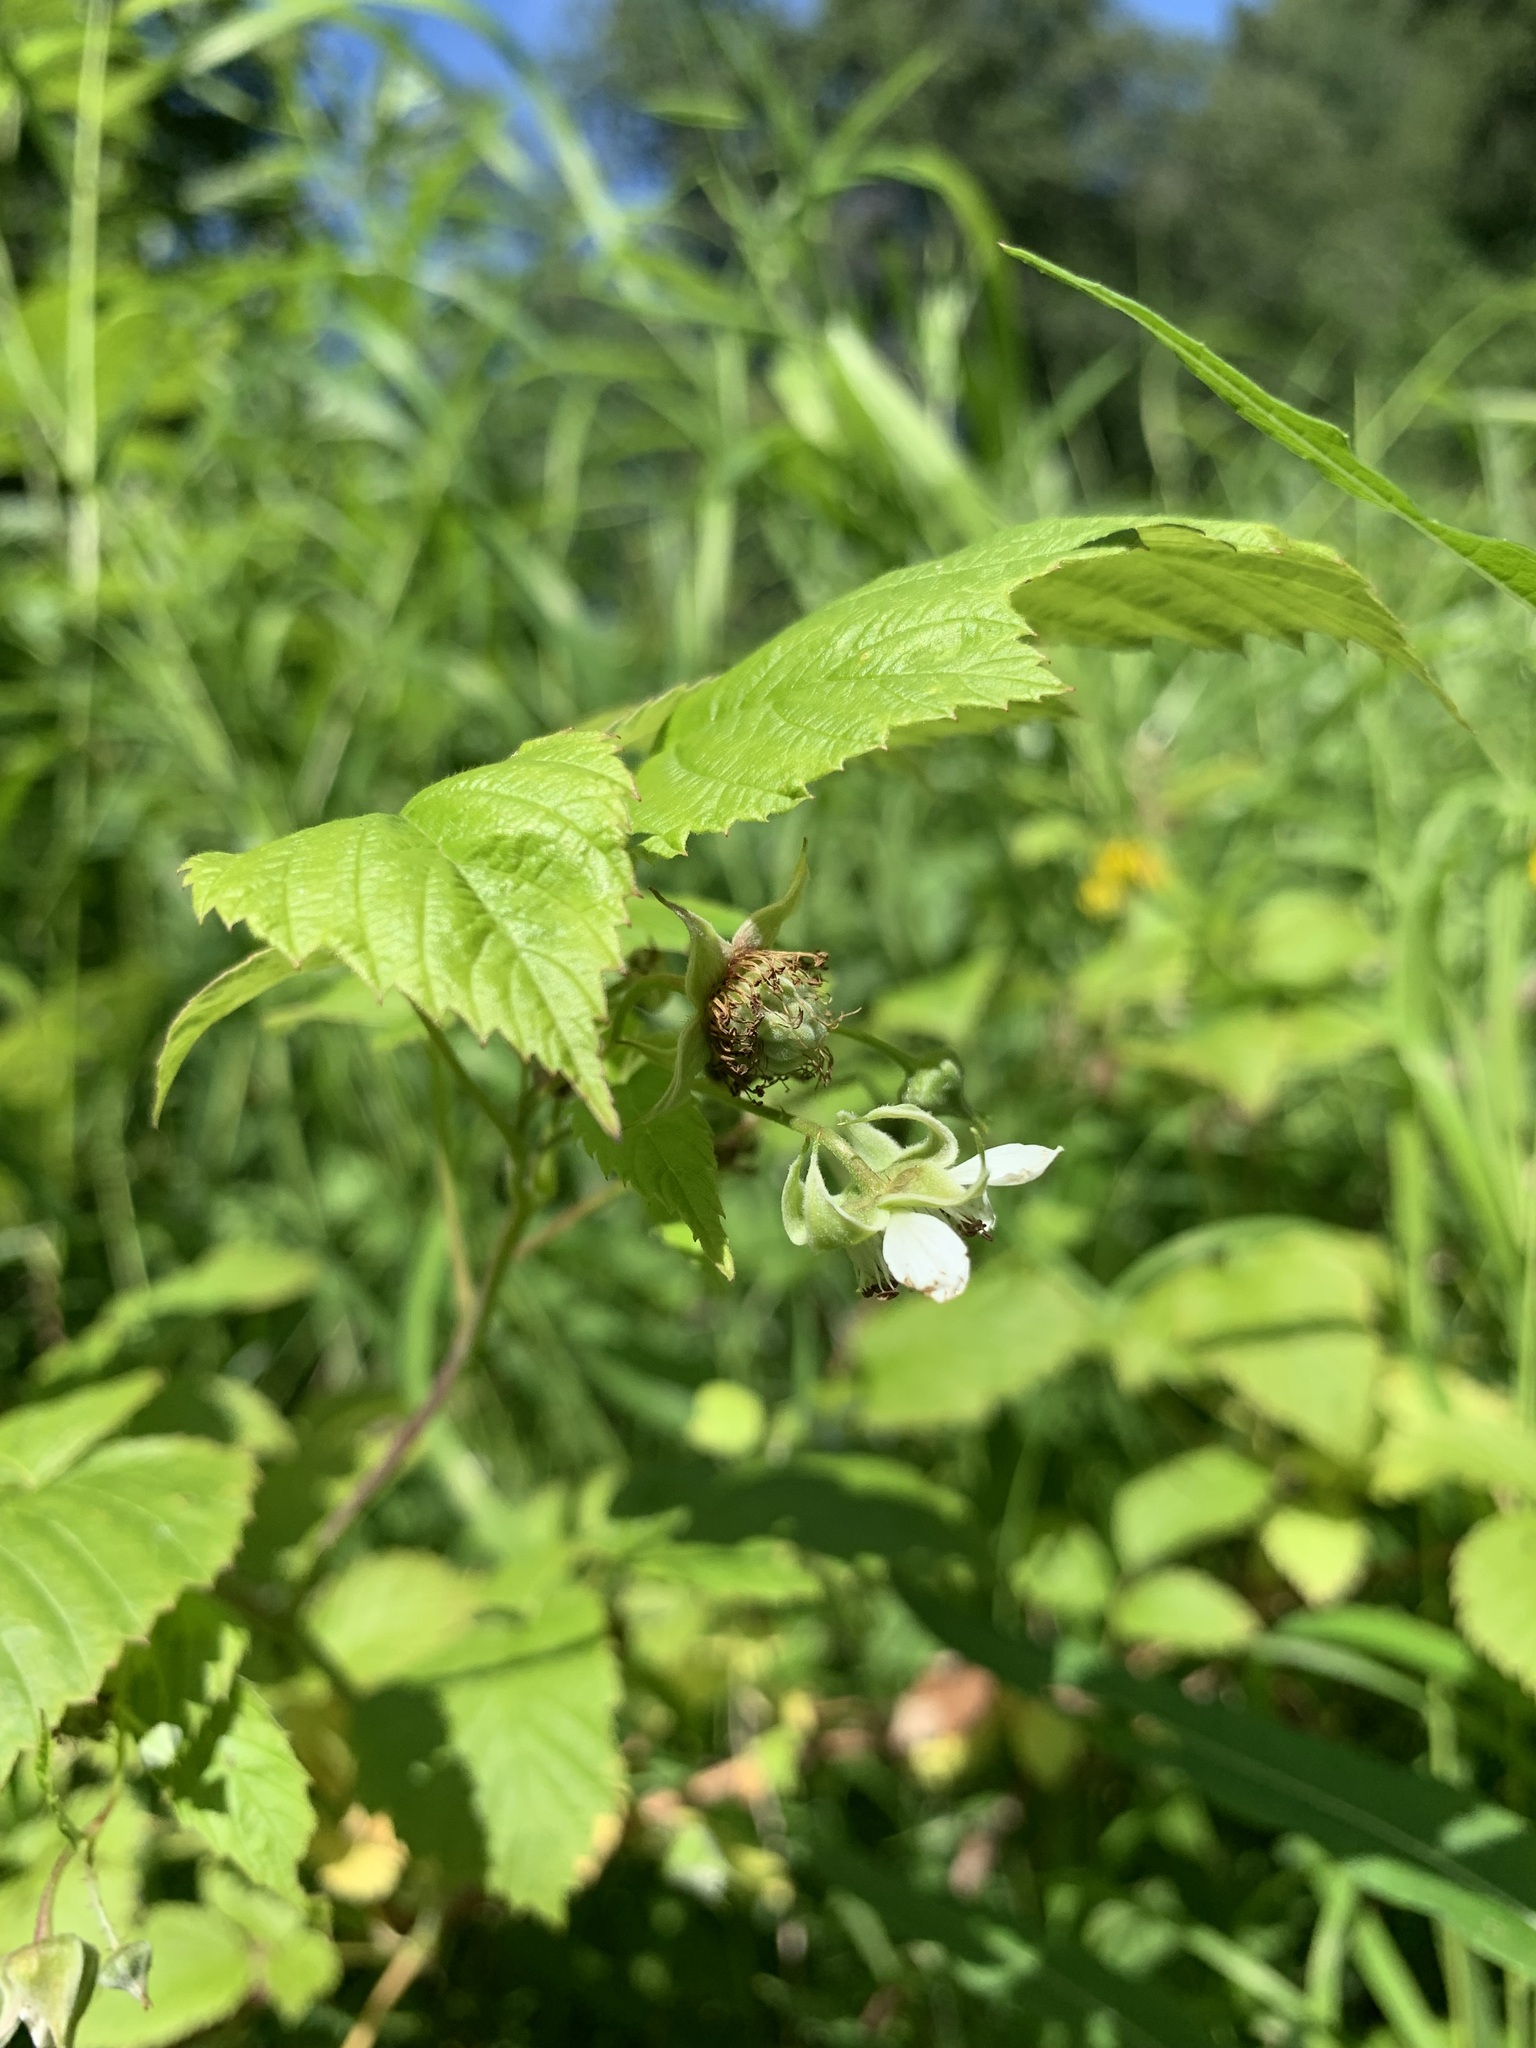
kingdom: Plantae
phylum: Tracheophyta
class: Magnoliopsida
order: Rosales
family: Rosaceae
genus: Rubus
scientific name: Rubus idaeus
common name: Raspberry
